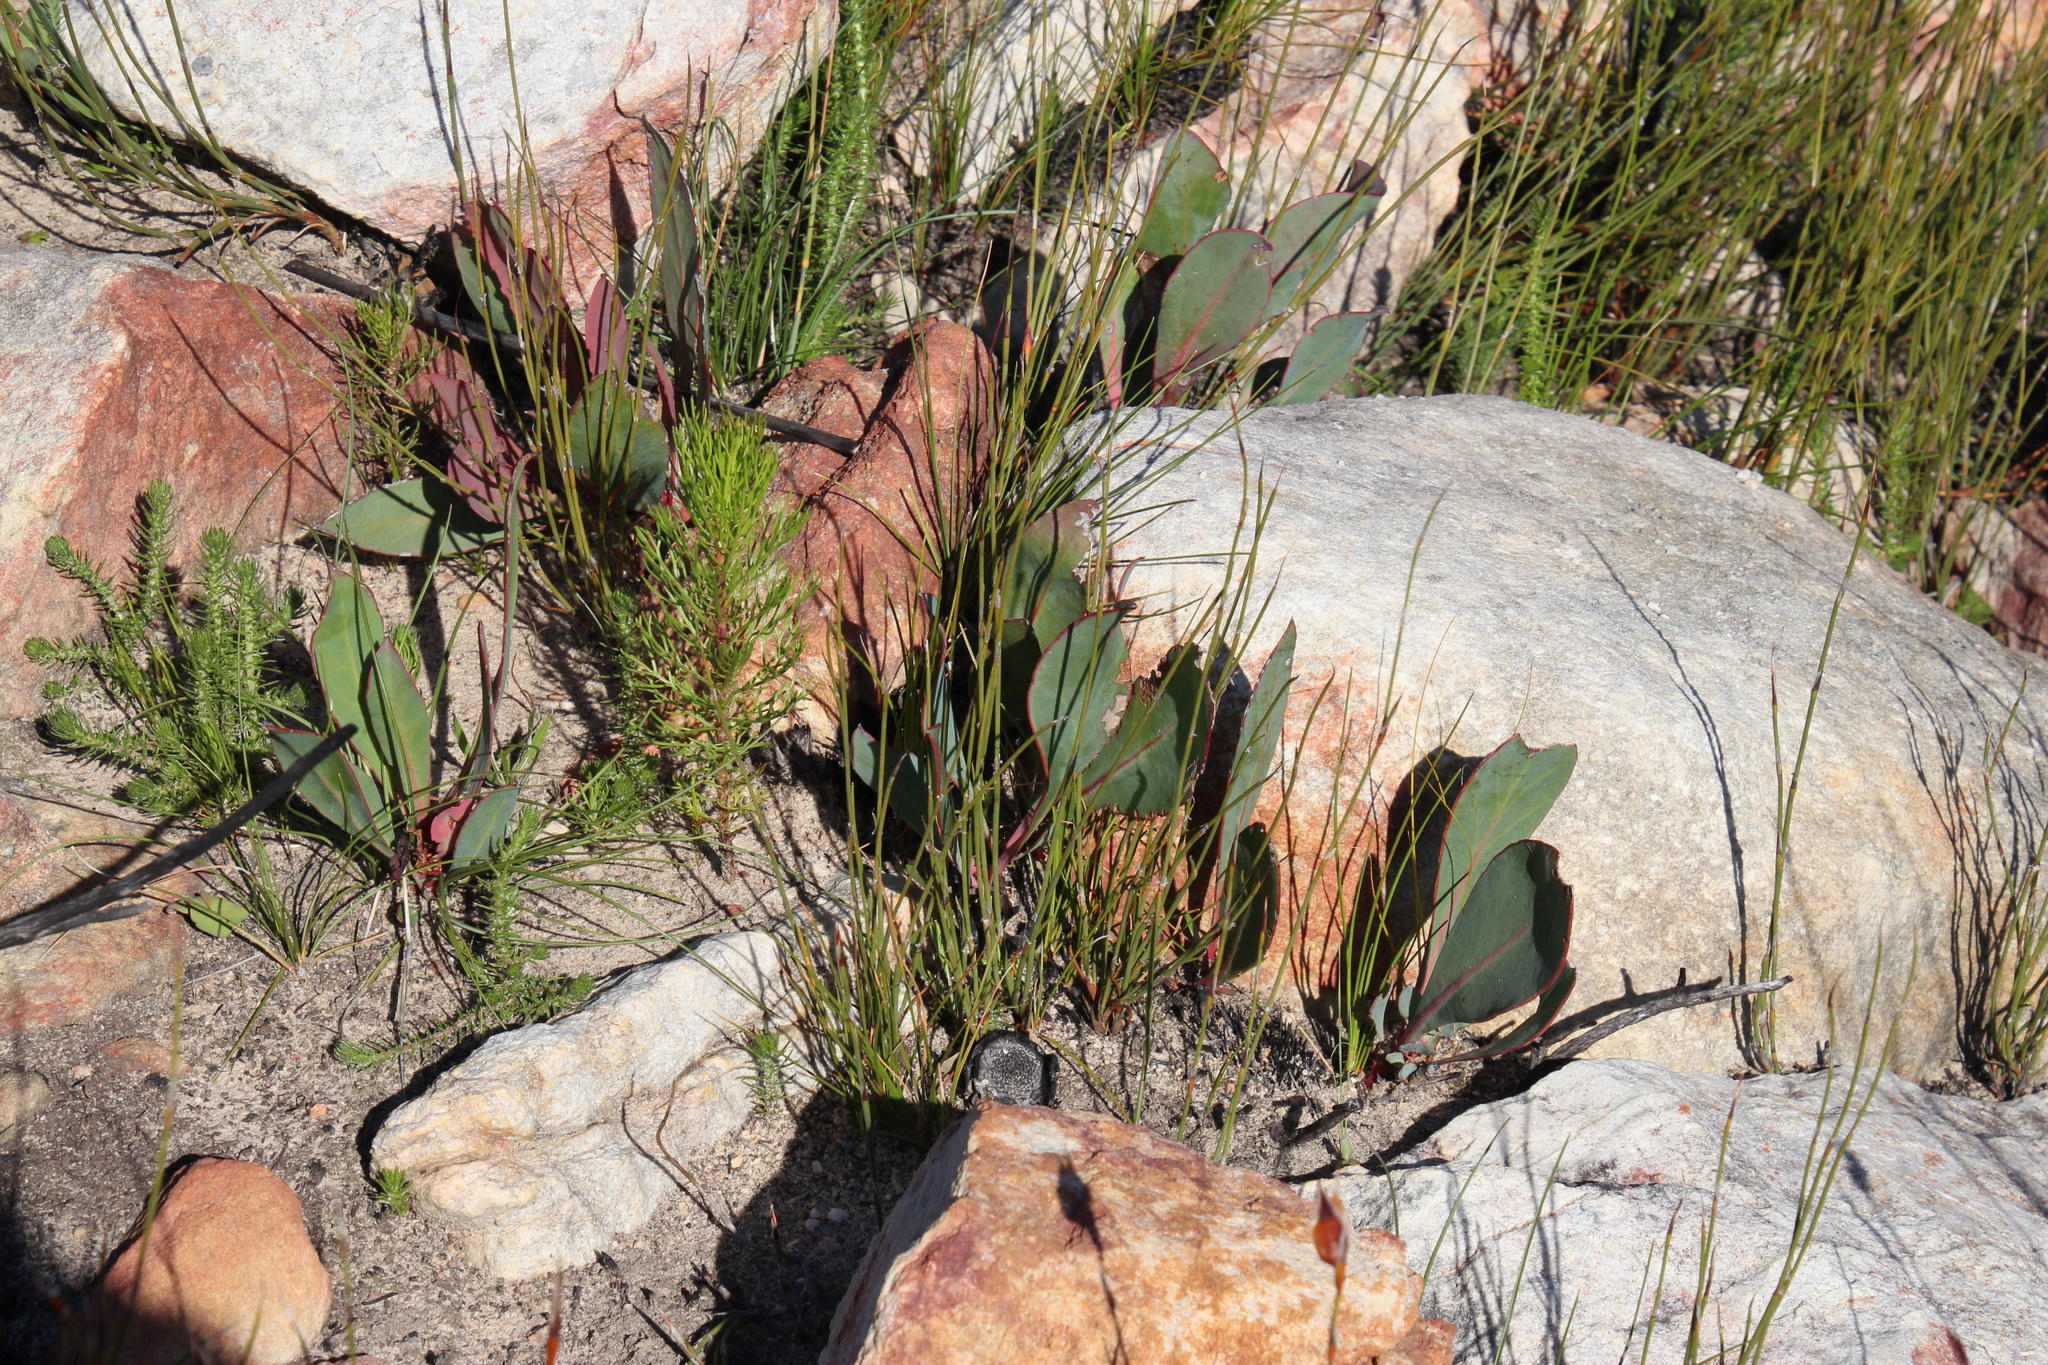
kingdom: Plantae
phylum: Tracheophyta
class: Magnoliopsida
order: Proteales
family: Proteaceae
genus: Protea
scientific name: Protea acaulos
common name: Common ground sugarbush
